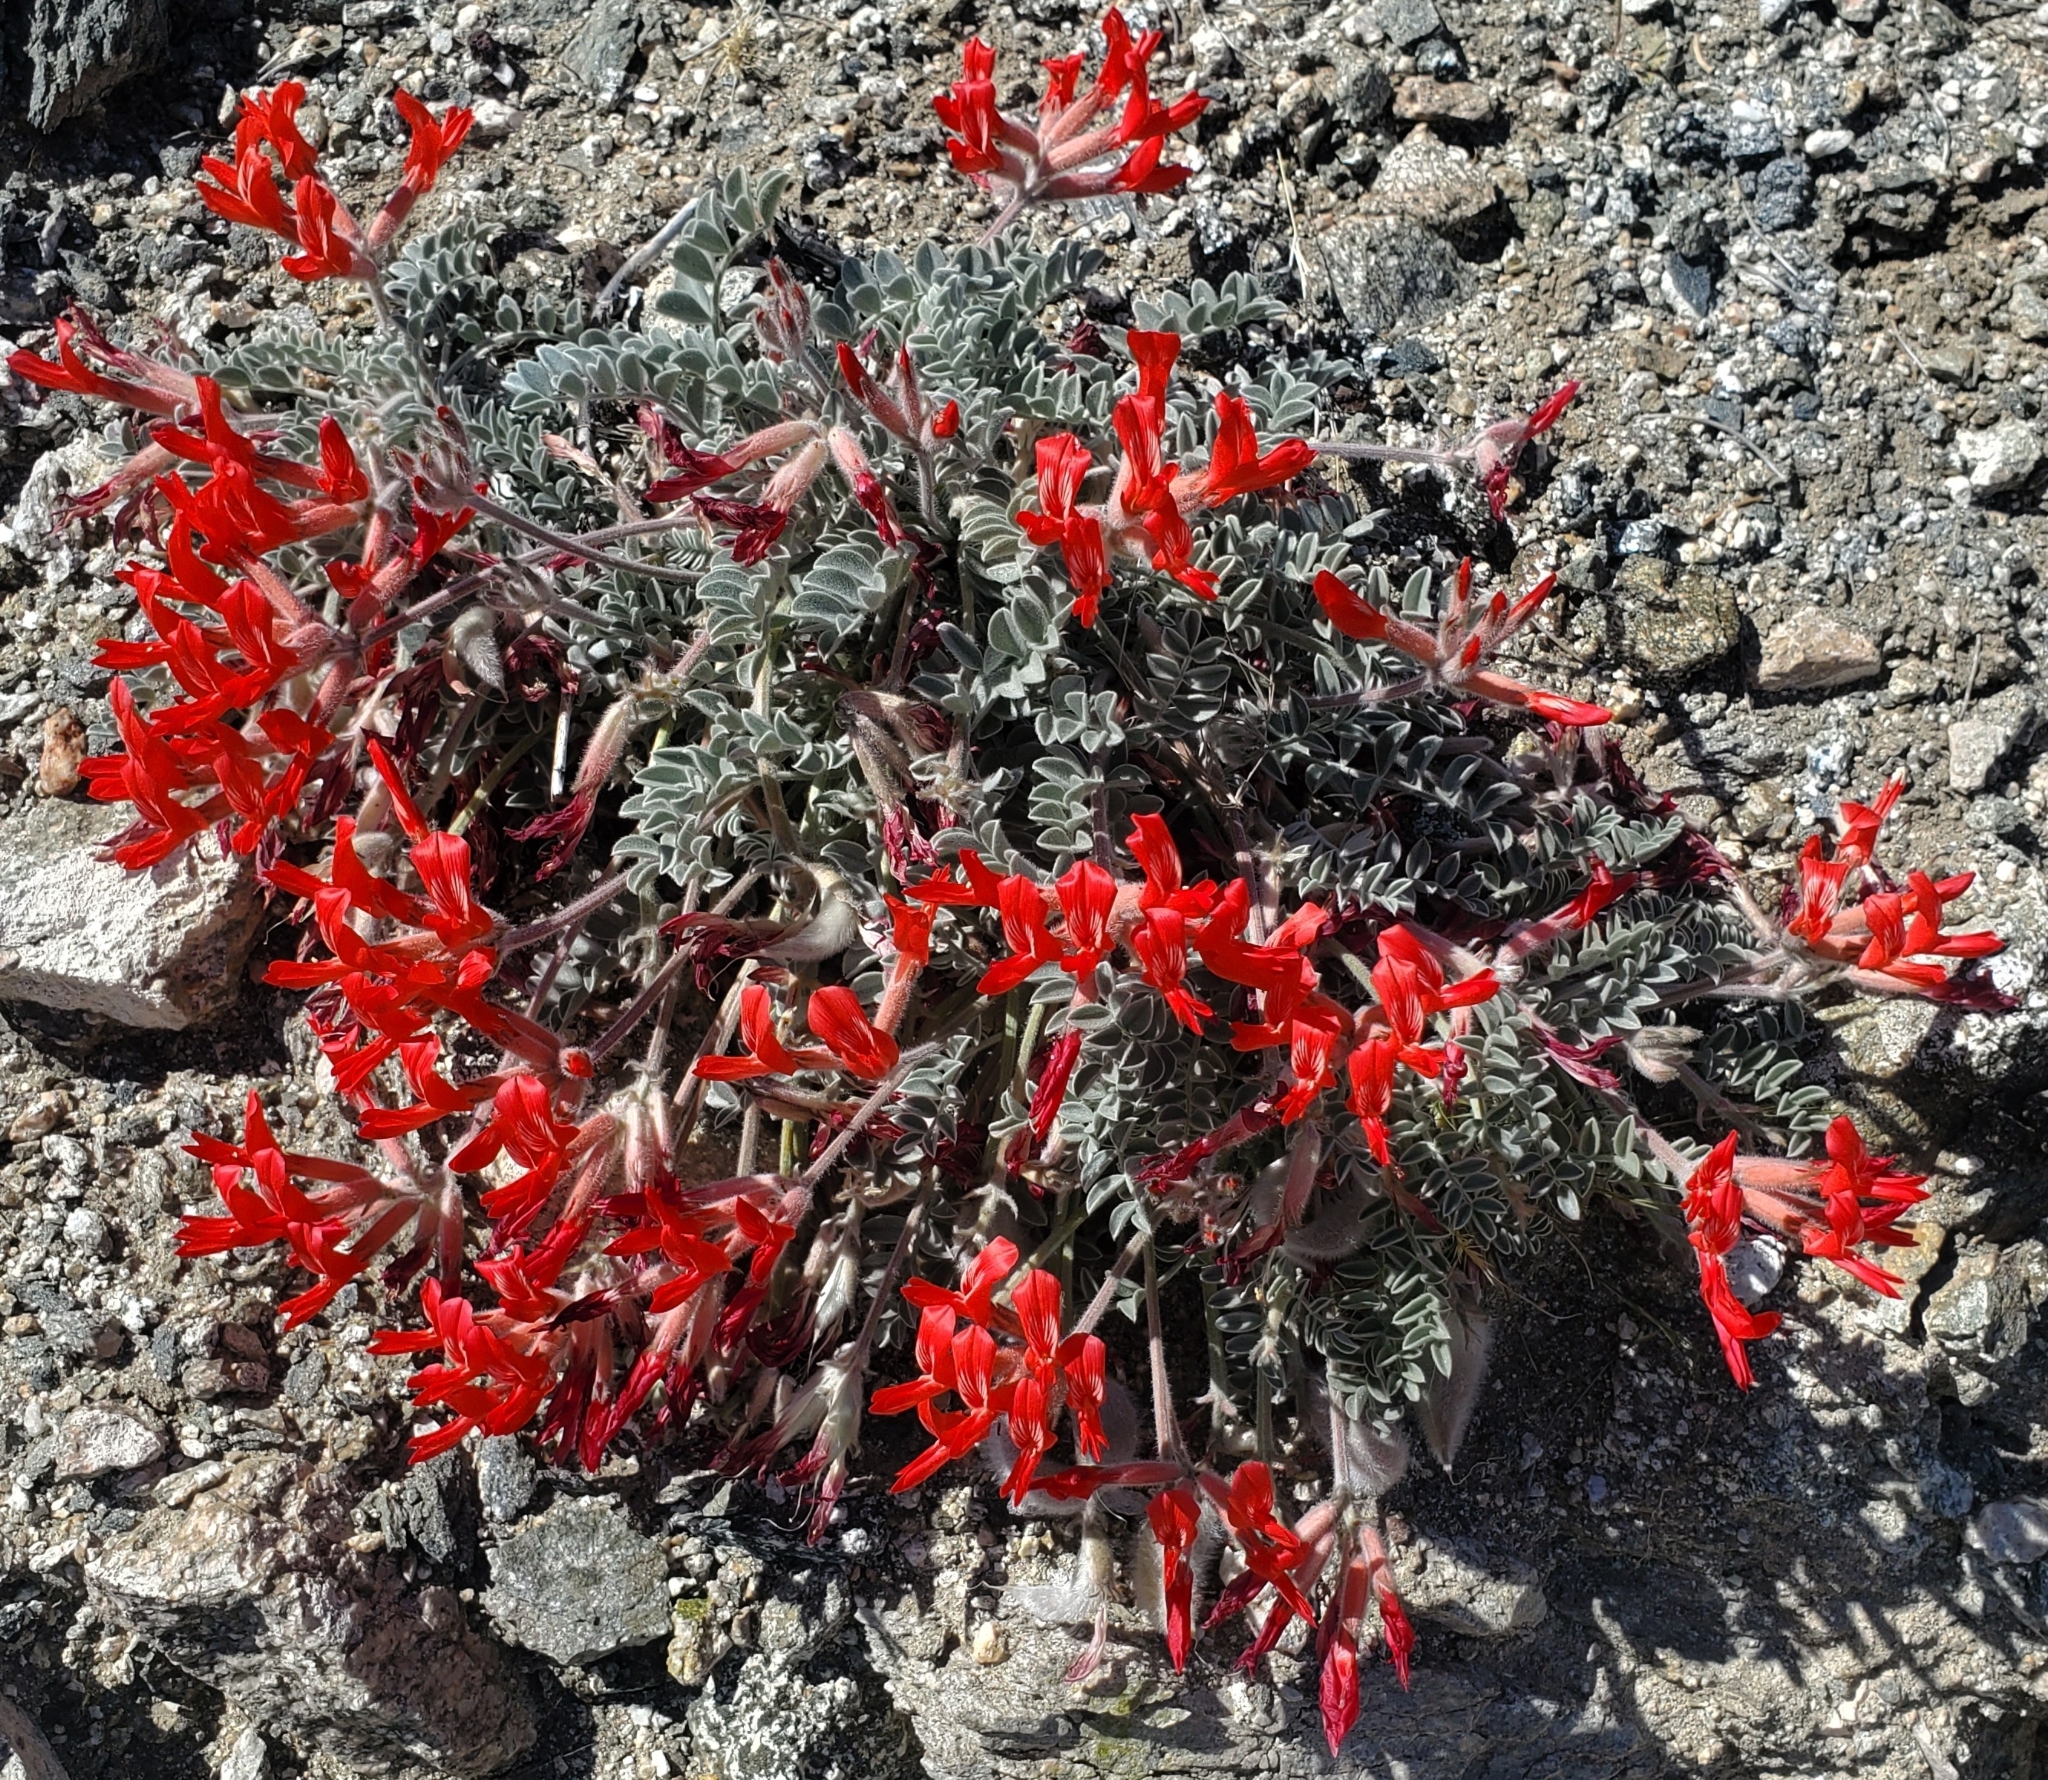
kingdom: Plantae
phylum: Tracheophyta
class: Magnoliopsida
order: Fabales
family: Fabaceae
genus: Astragalus
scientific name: Astragalus coccineus
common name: Scarlet milk-vetch
